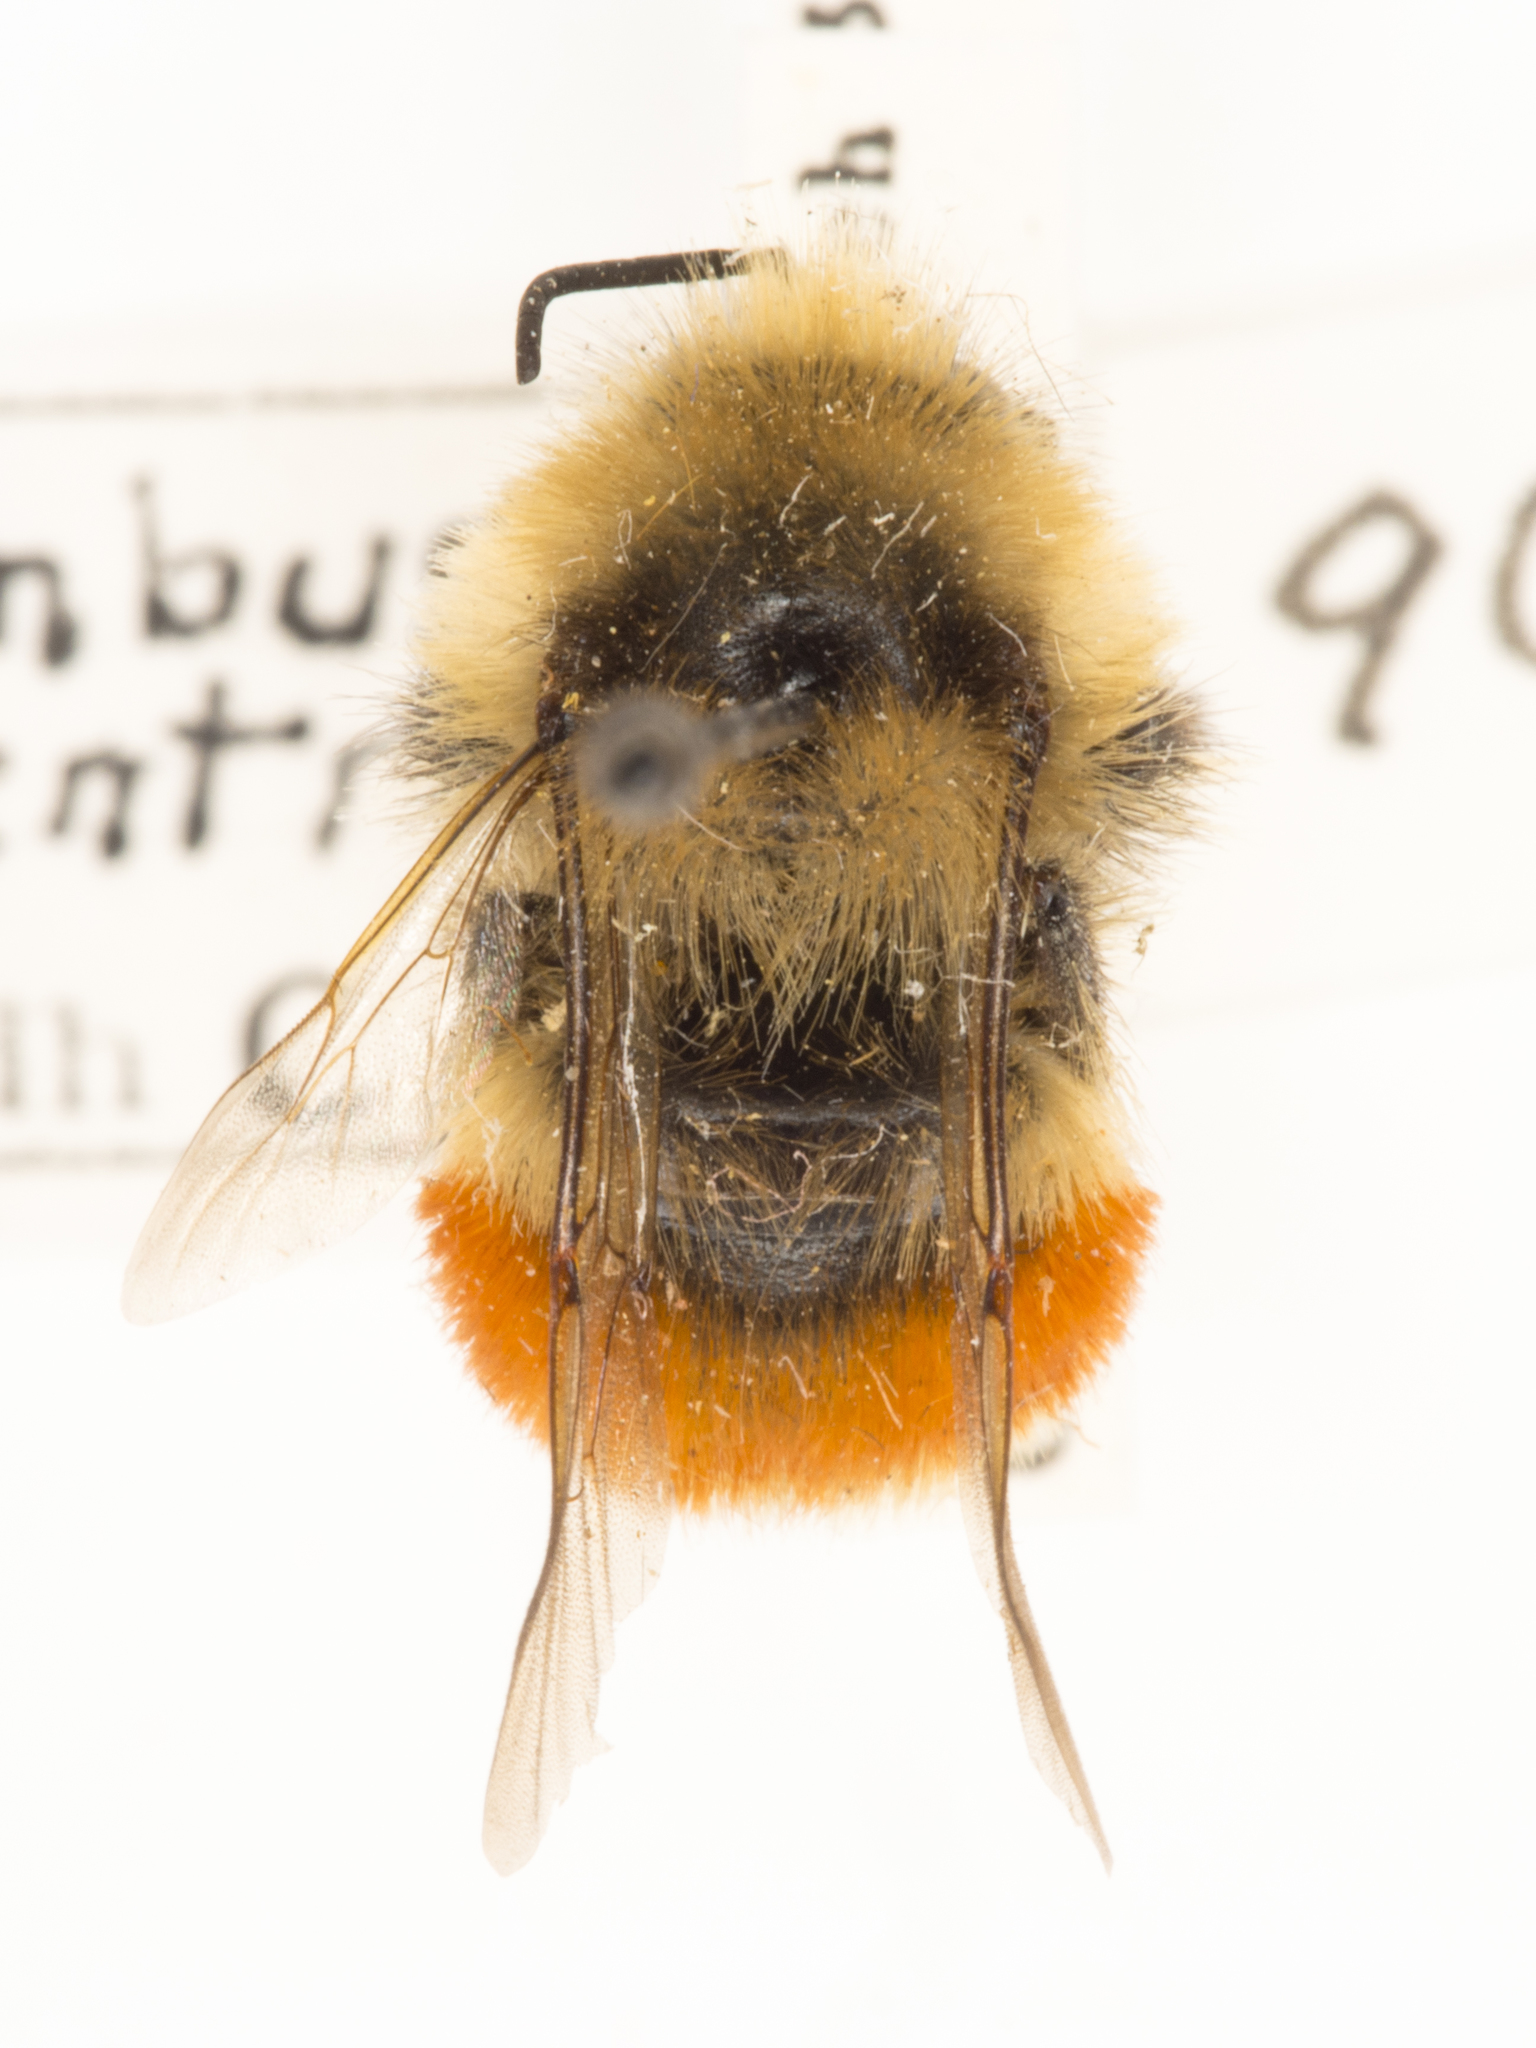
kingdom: Animalia
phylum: Arthropoda
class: Insecta
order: Hymenoptera
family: Apidae
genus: Bombus
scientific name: Bombus huntii
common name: Hunt bumble bee
